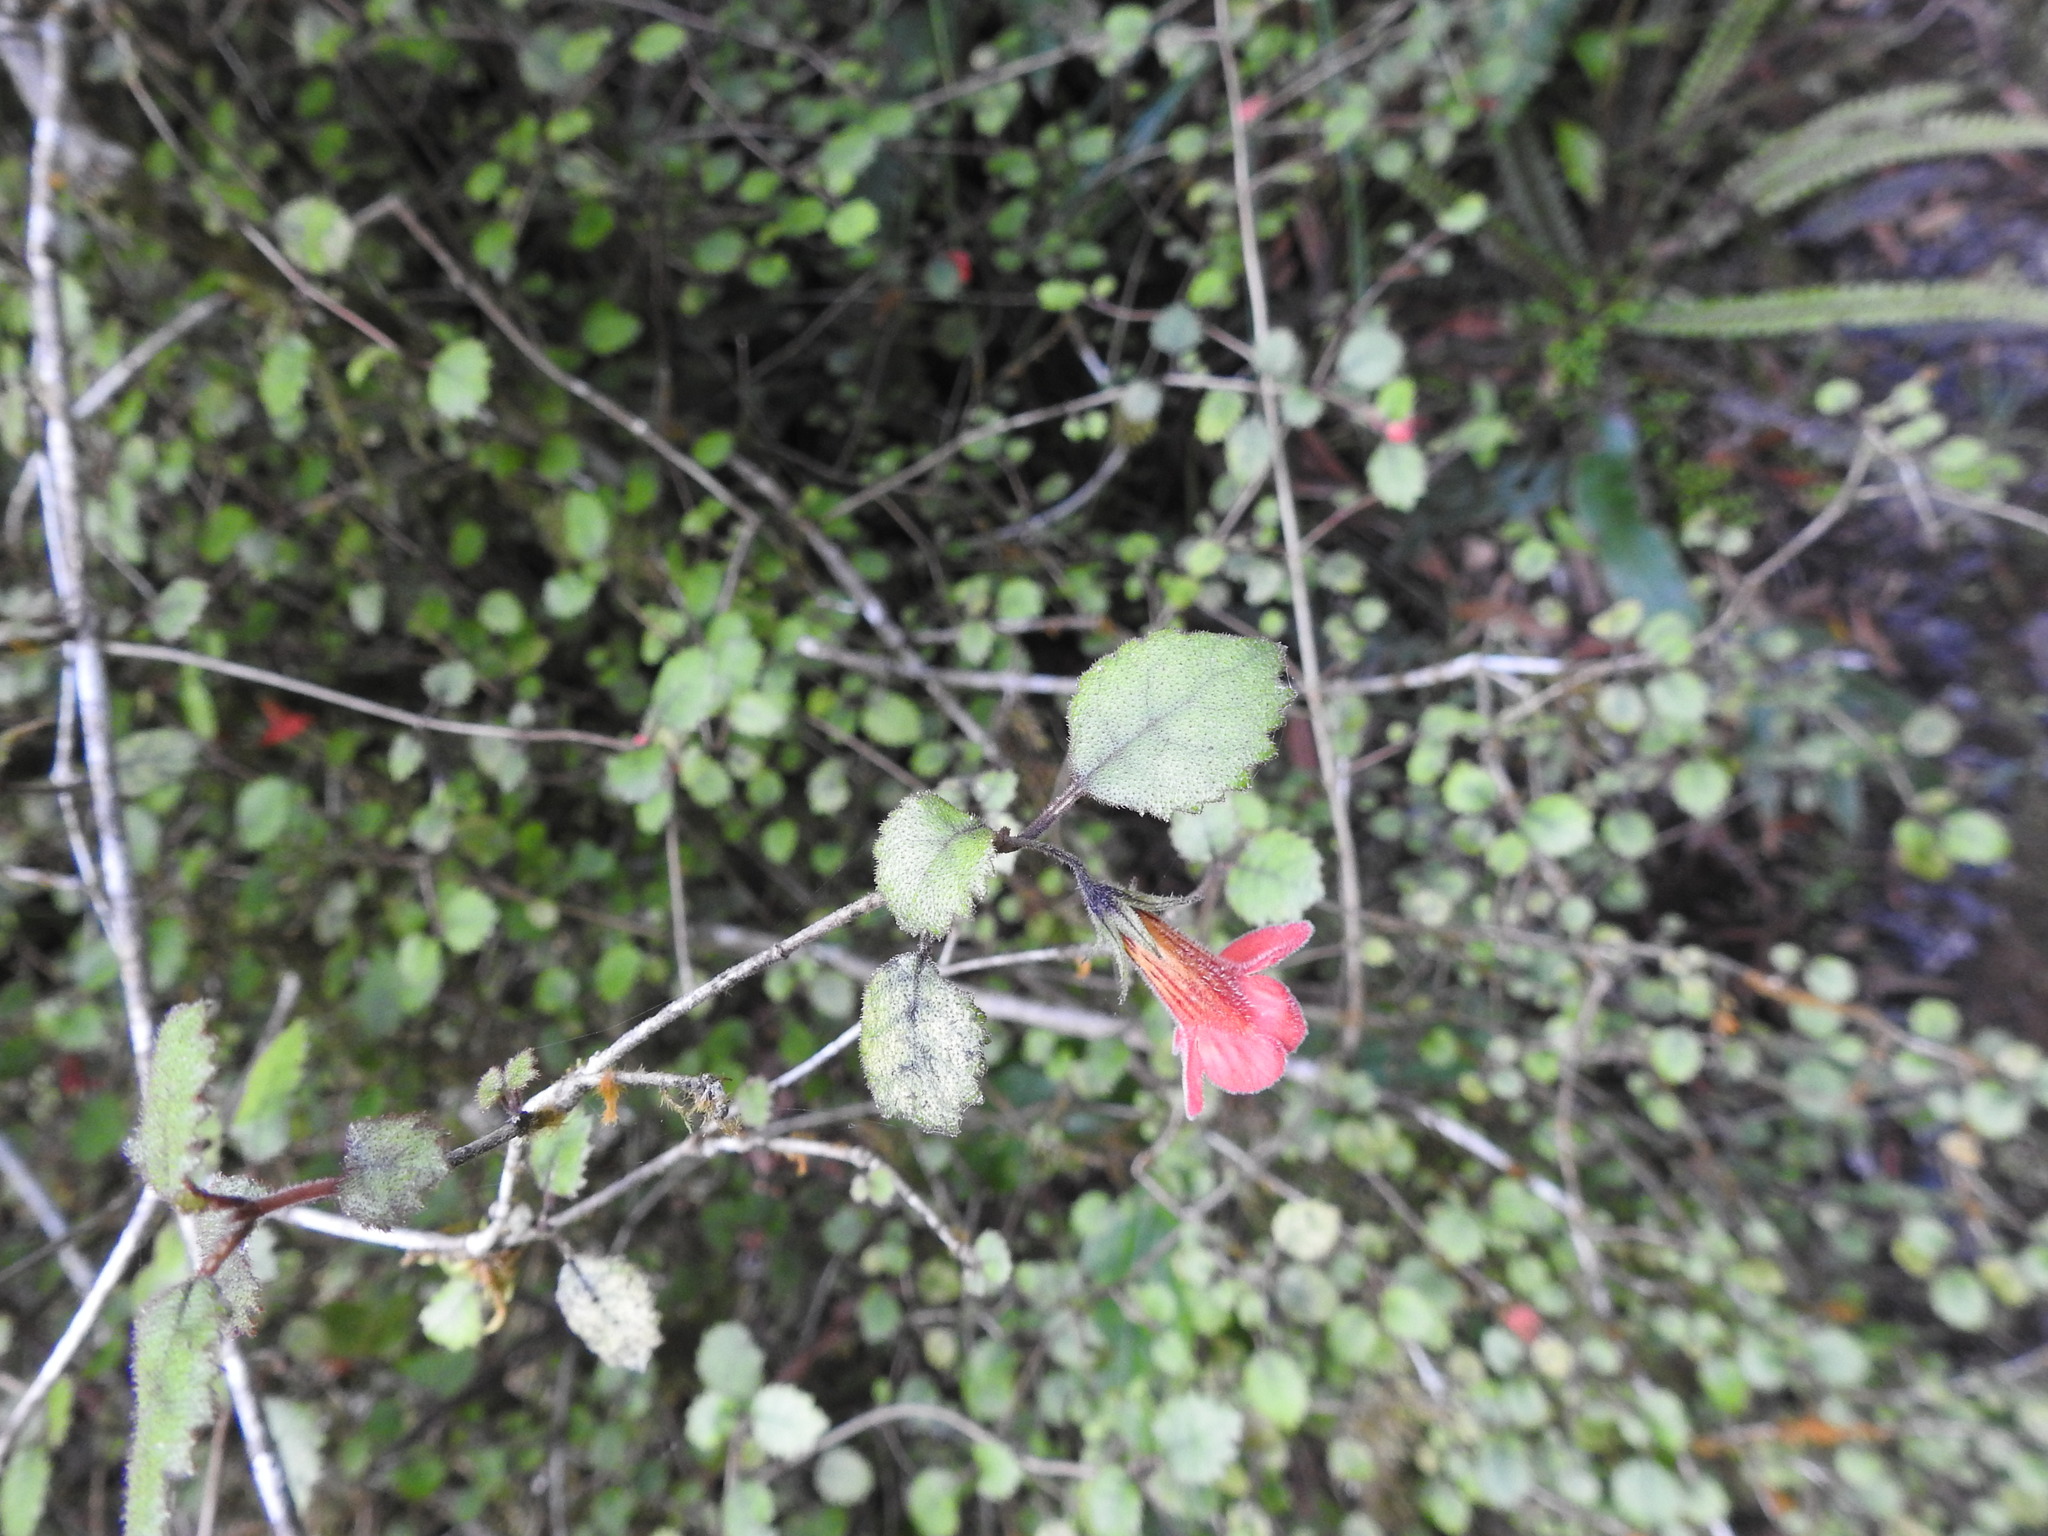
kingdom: Plantae
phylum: Tracheophyta
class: Magnoliopsida
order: Lamiales
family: Gesneriaceae
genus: Rhabdothamnus
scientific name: Rhabdothamnus solandri
